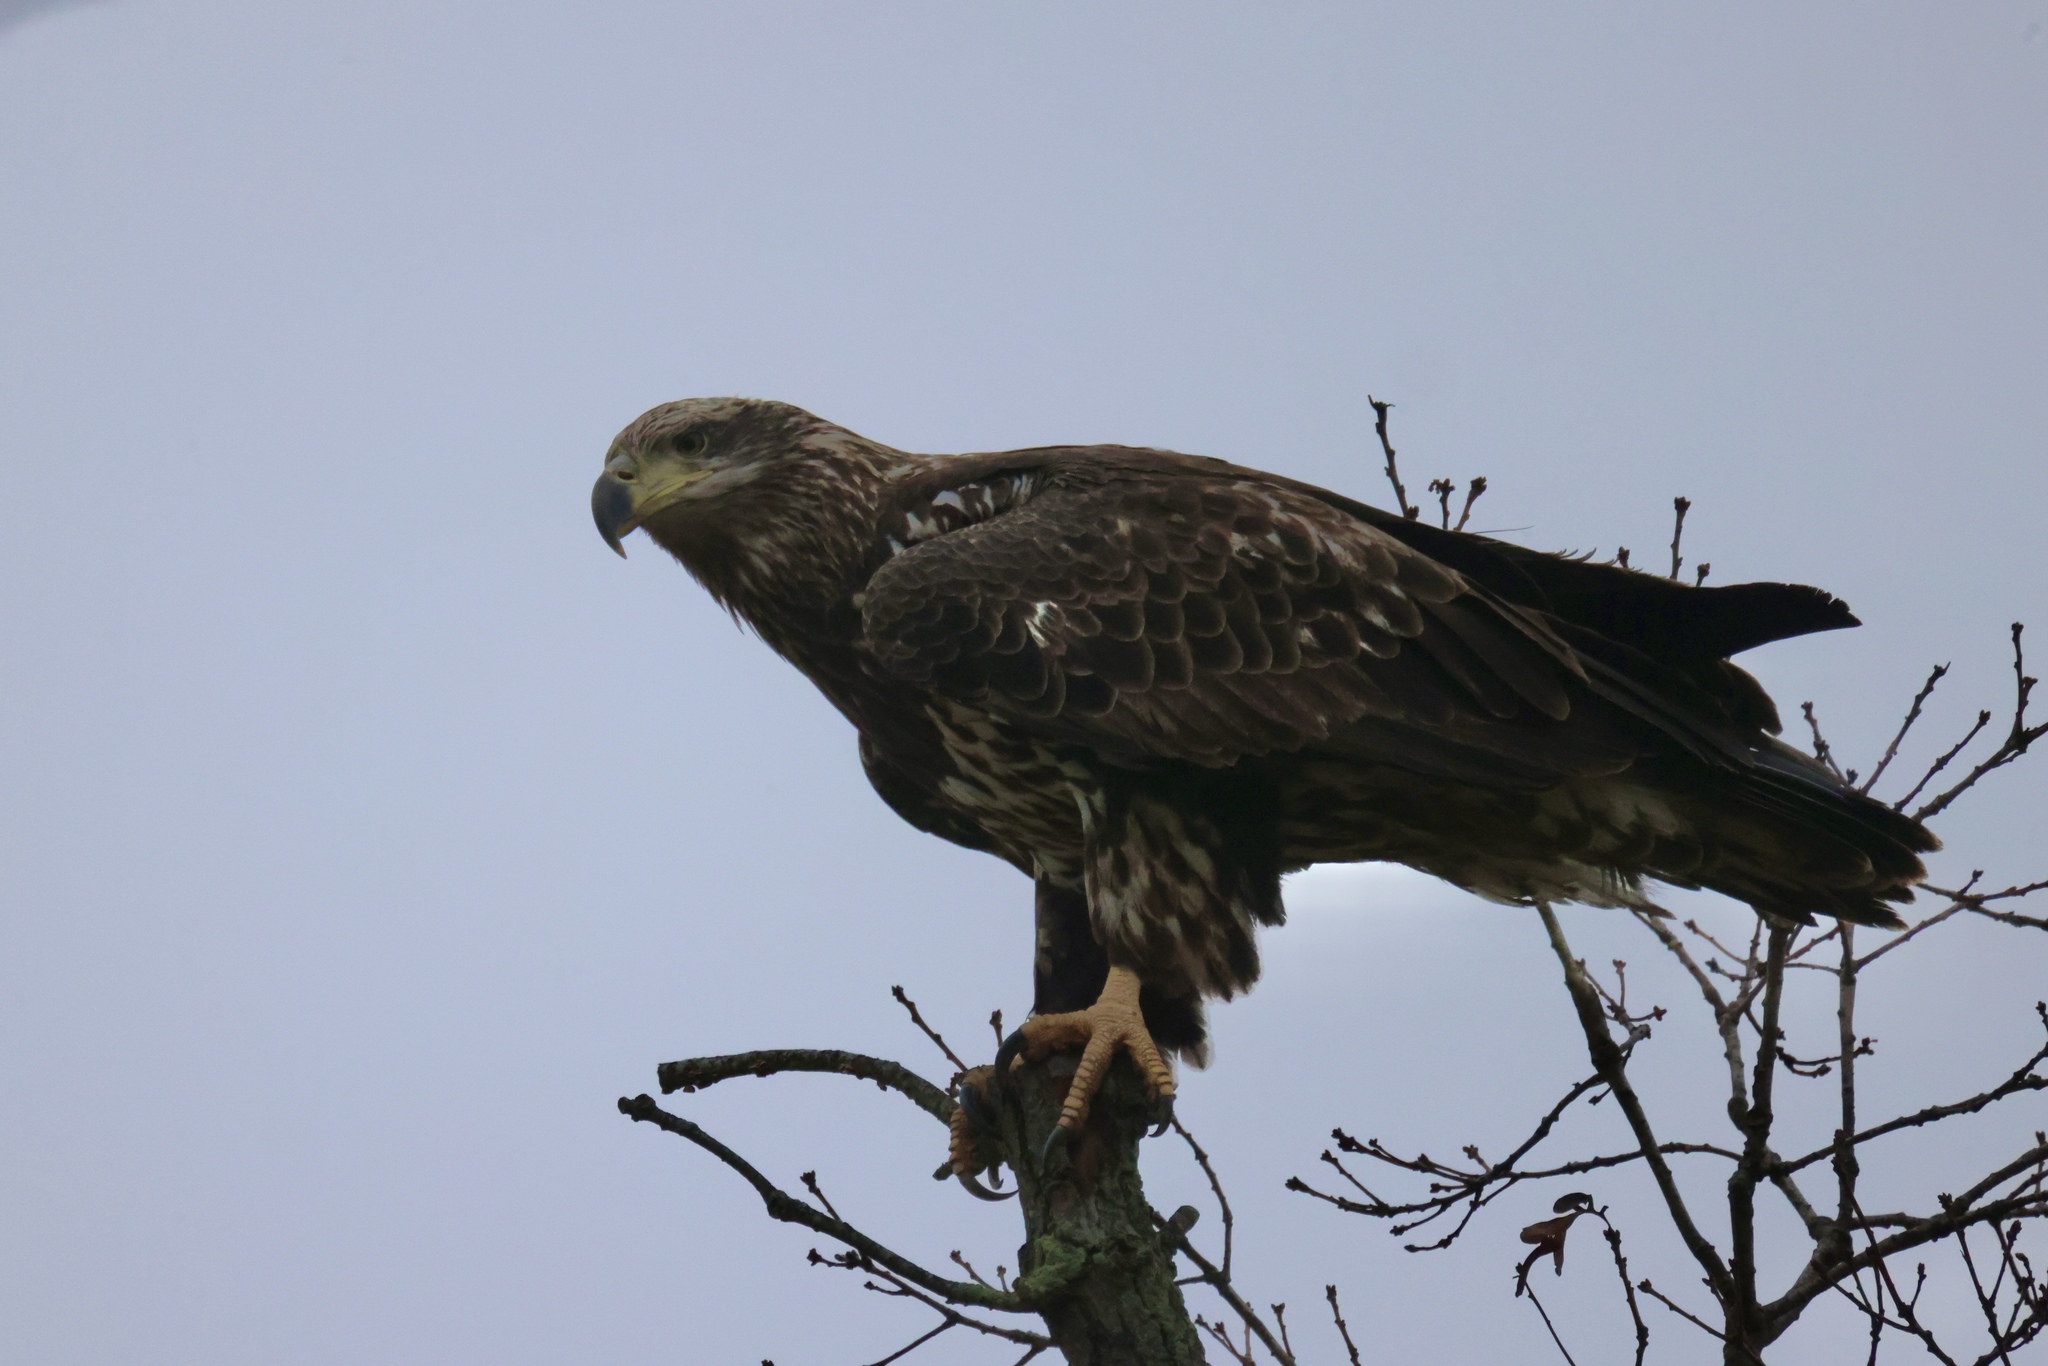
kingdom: Animalia
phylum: Chordata
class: Aves
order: Accipitriformes
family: Accipitridae
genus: Haliaeetus
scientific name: Haliaeetus leucocephalus
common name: Bald eagle
